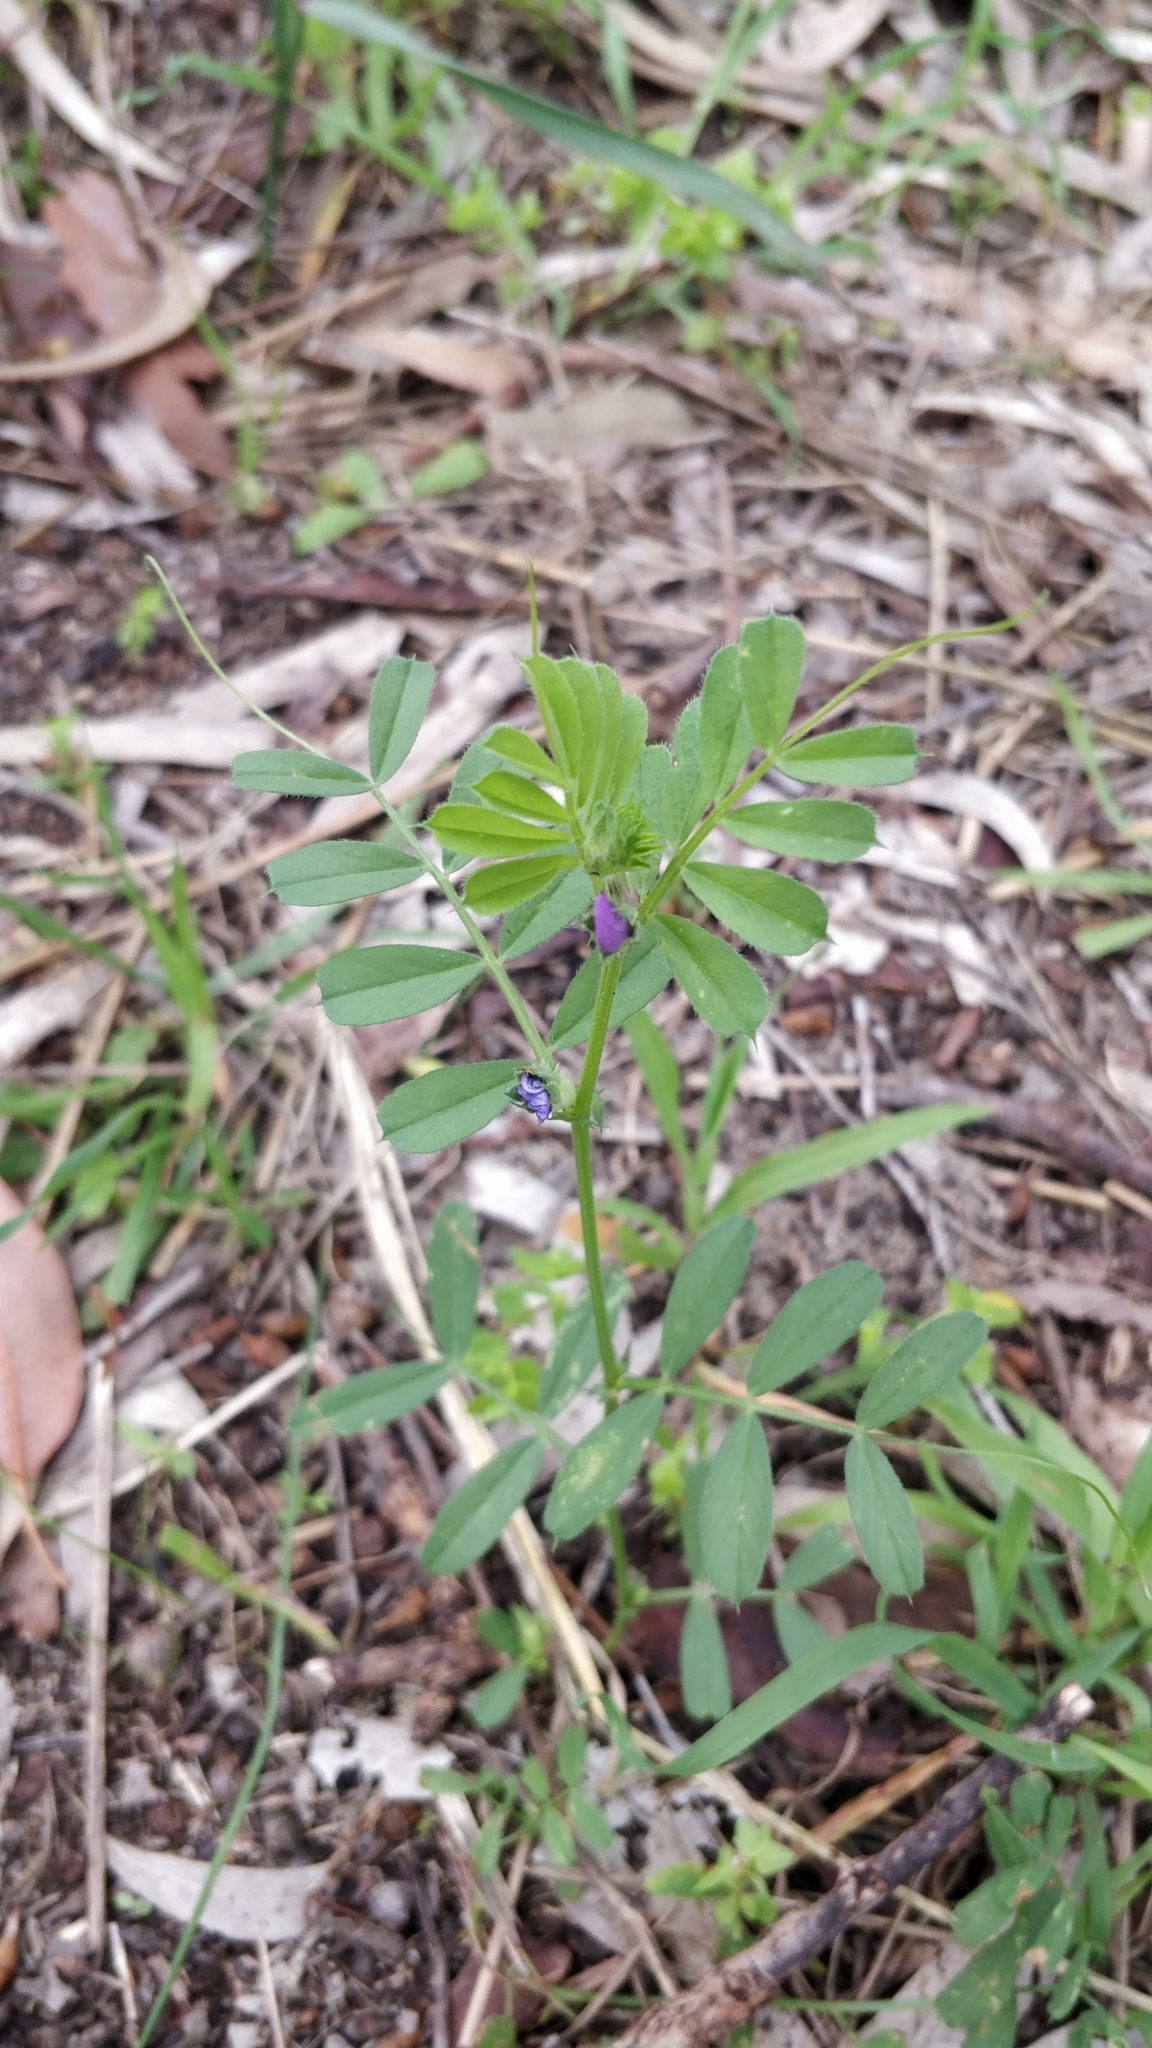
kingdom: Plantae
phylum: Tracheophyta
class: Magnoliopsida
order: Fabales
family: Fabaceae
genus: Vicia
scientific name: Vicia sativa
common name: Garden vetch
